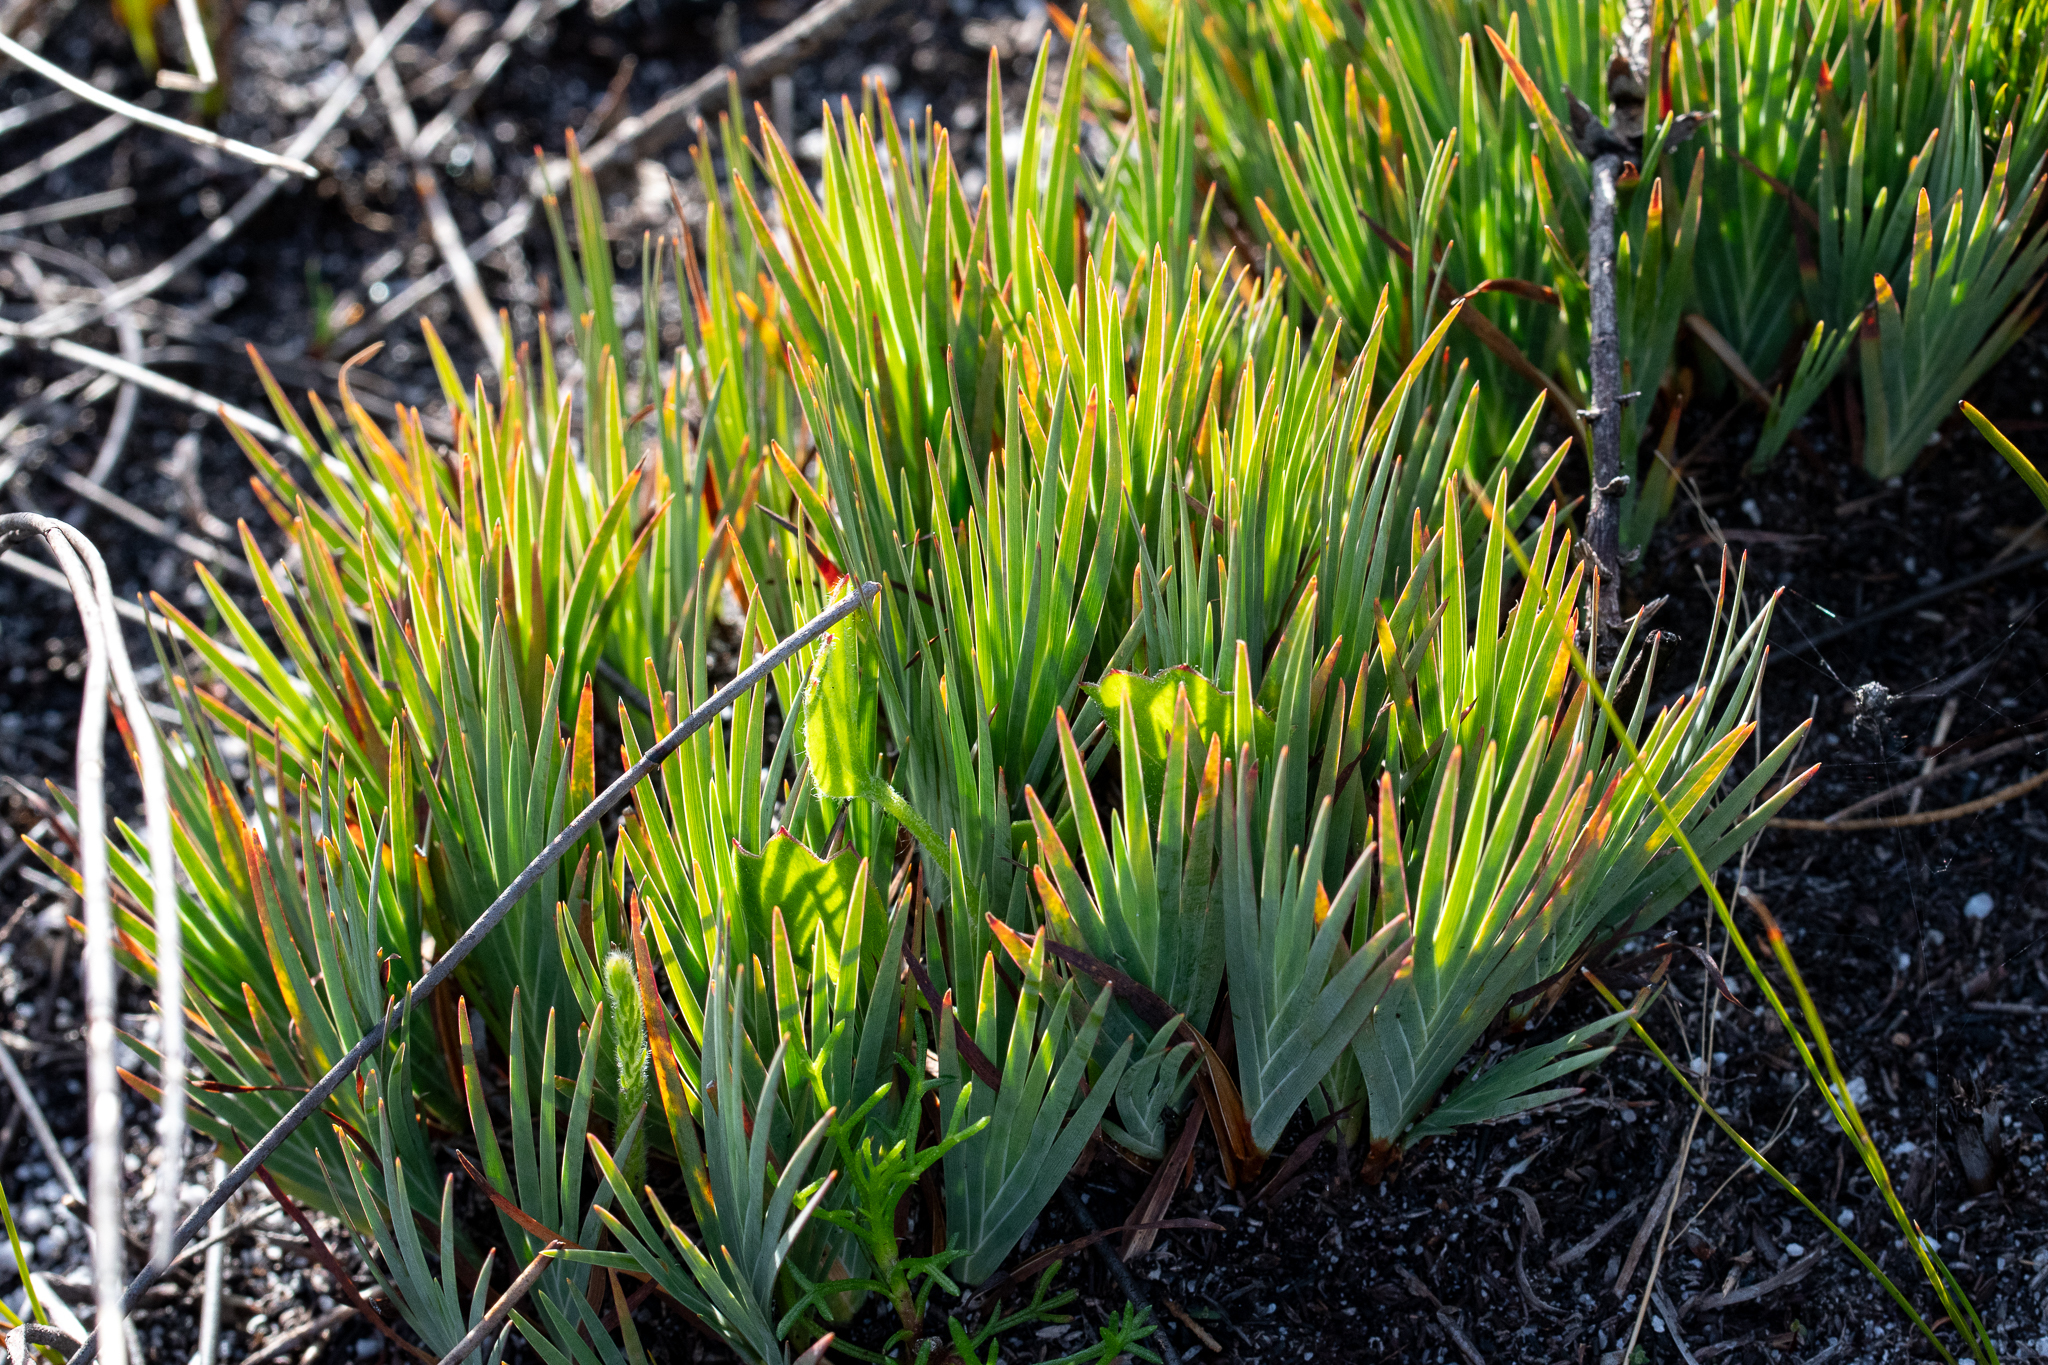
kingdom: Plantae
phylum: Tracheophyta
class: Liliopsida
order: Asparagales
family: Iridaceae
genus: Nivenia
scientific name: Nivenia levynsiae
